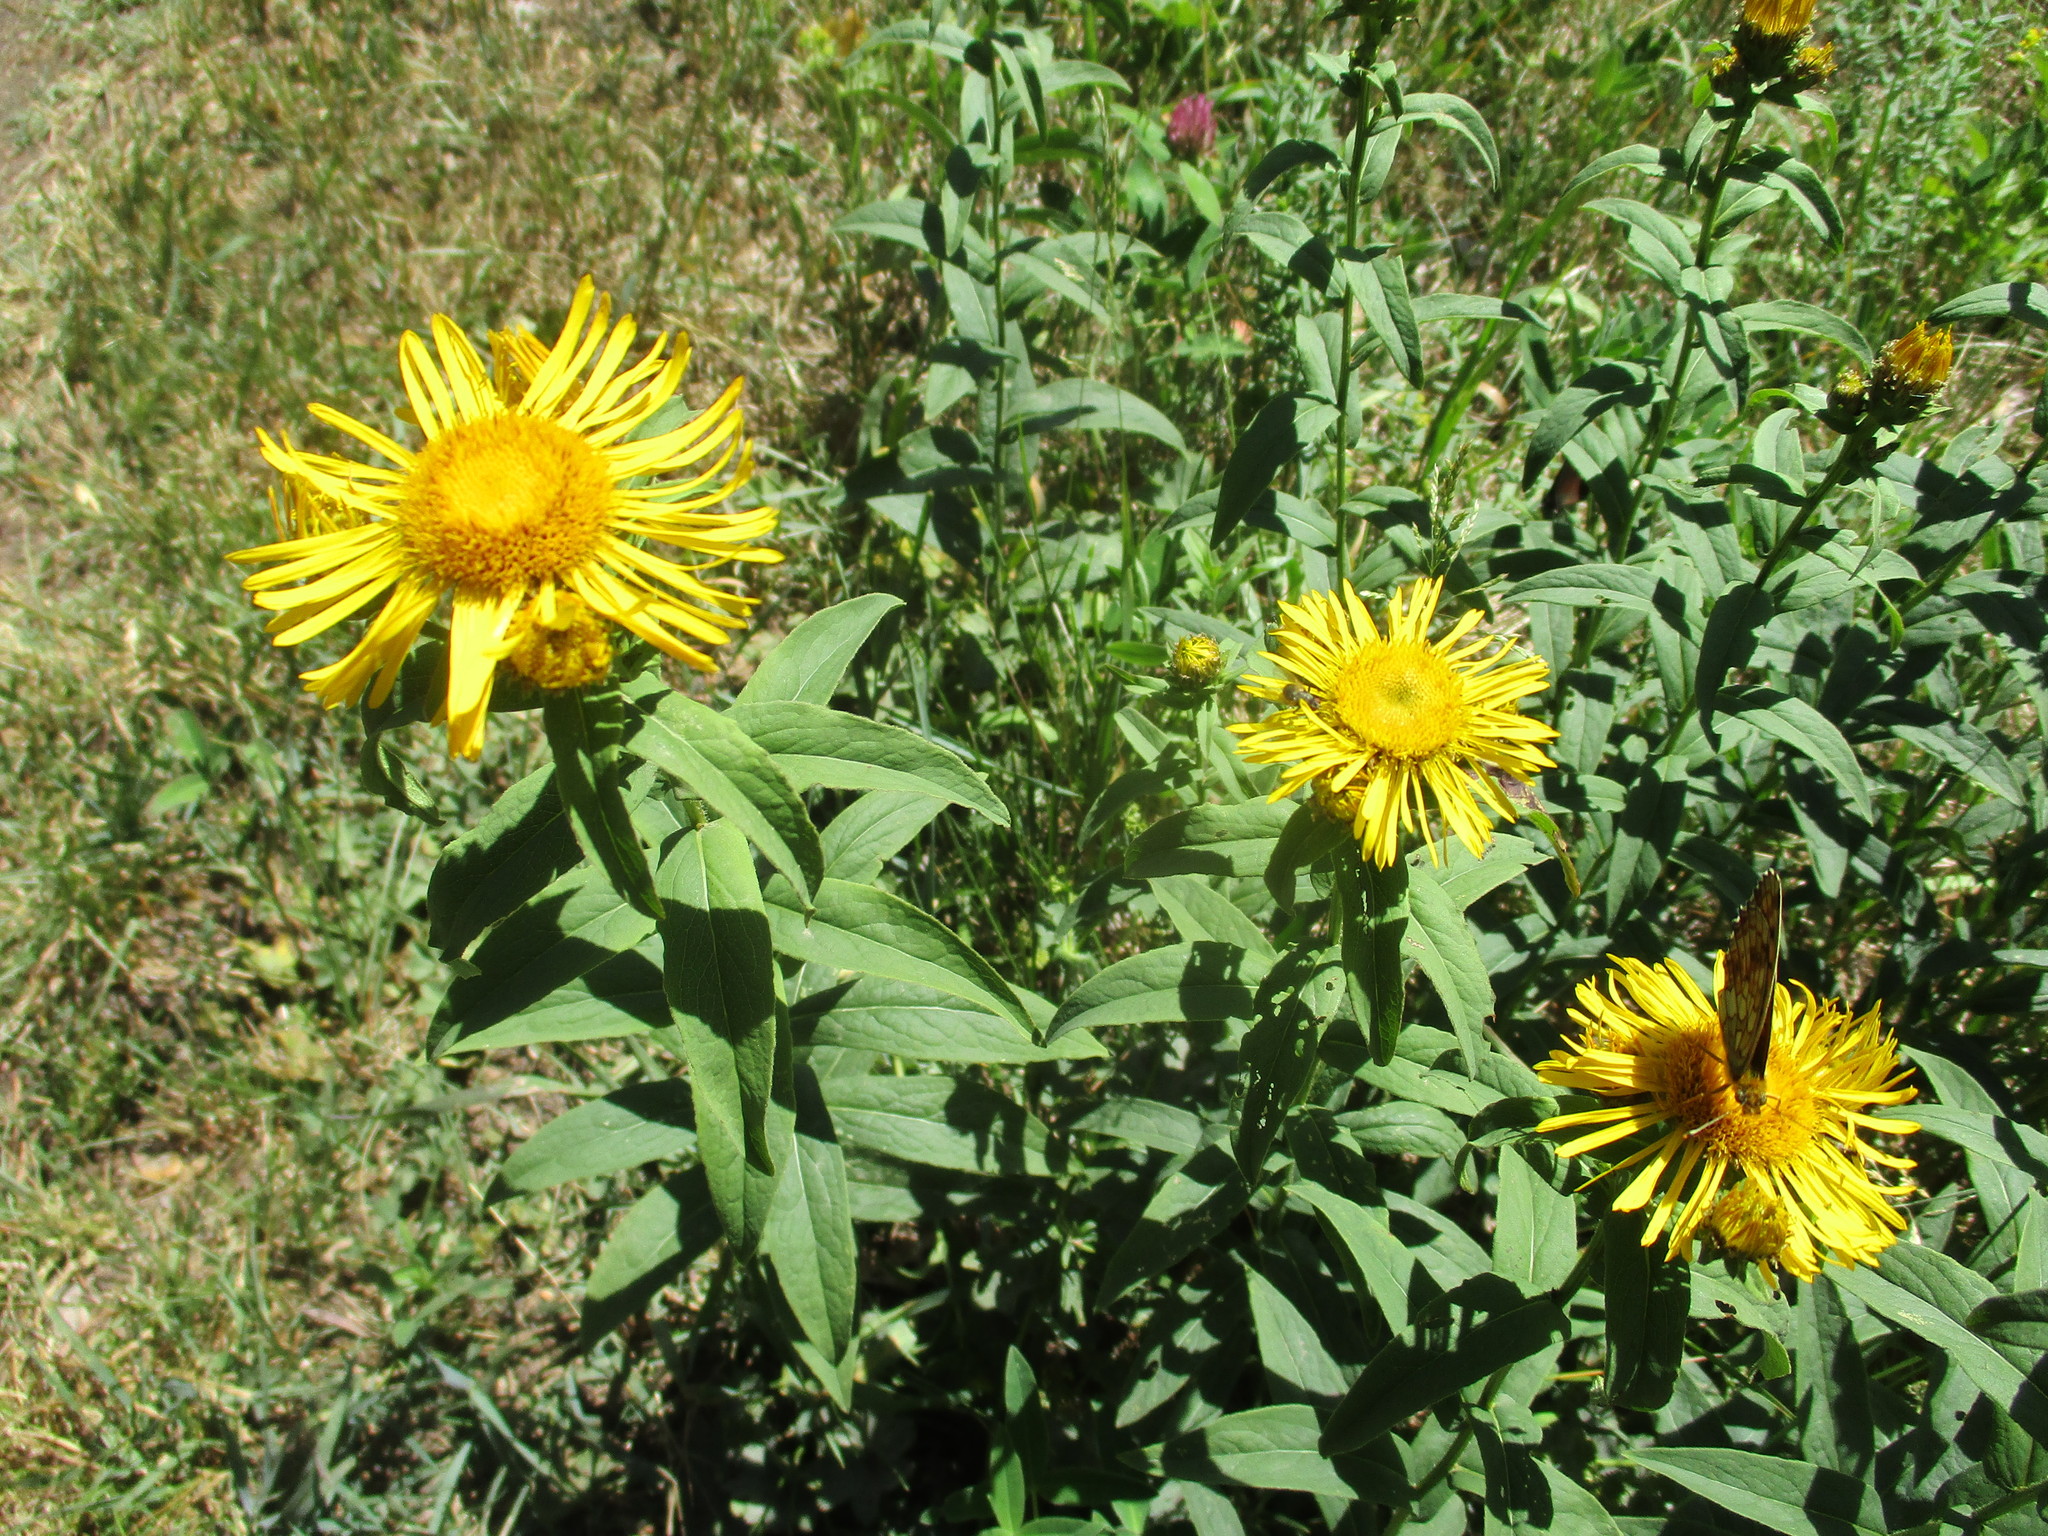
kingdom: Plantae
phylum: Tracheophyta
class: Magnoliopsida
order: Asterales
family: Asteraceae
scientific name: Asteraceae
